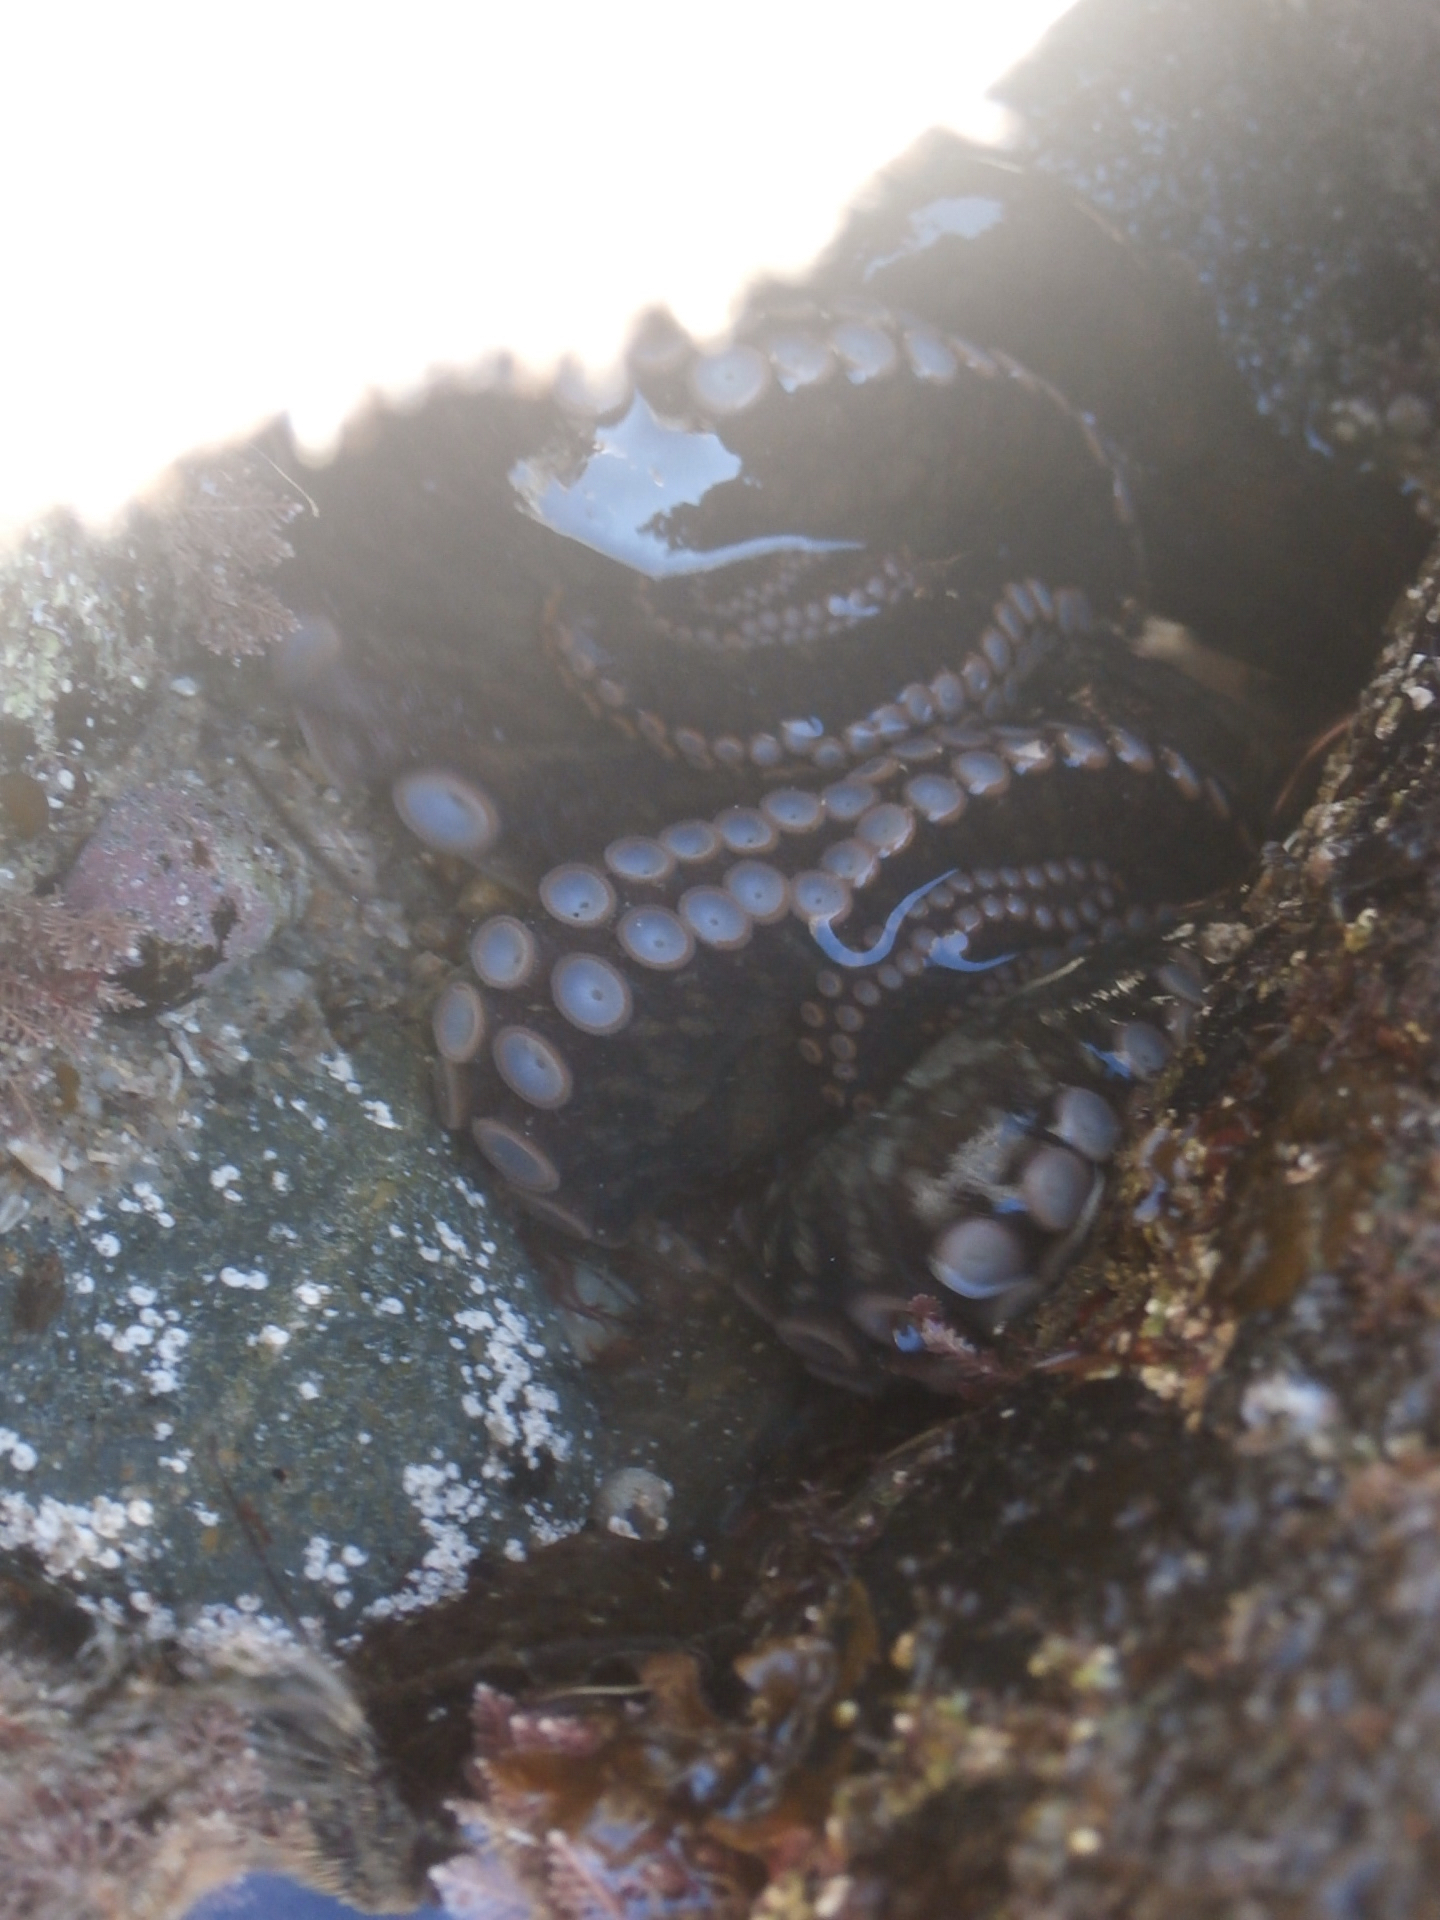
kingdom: Animalia
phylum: Mollusca
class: Cephalopoda
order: Octopoda
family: Enteroctopodidae
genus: Enteroctopus
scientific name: Enteroctopus dofleini
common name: Giant north pacific octopus
